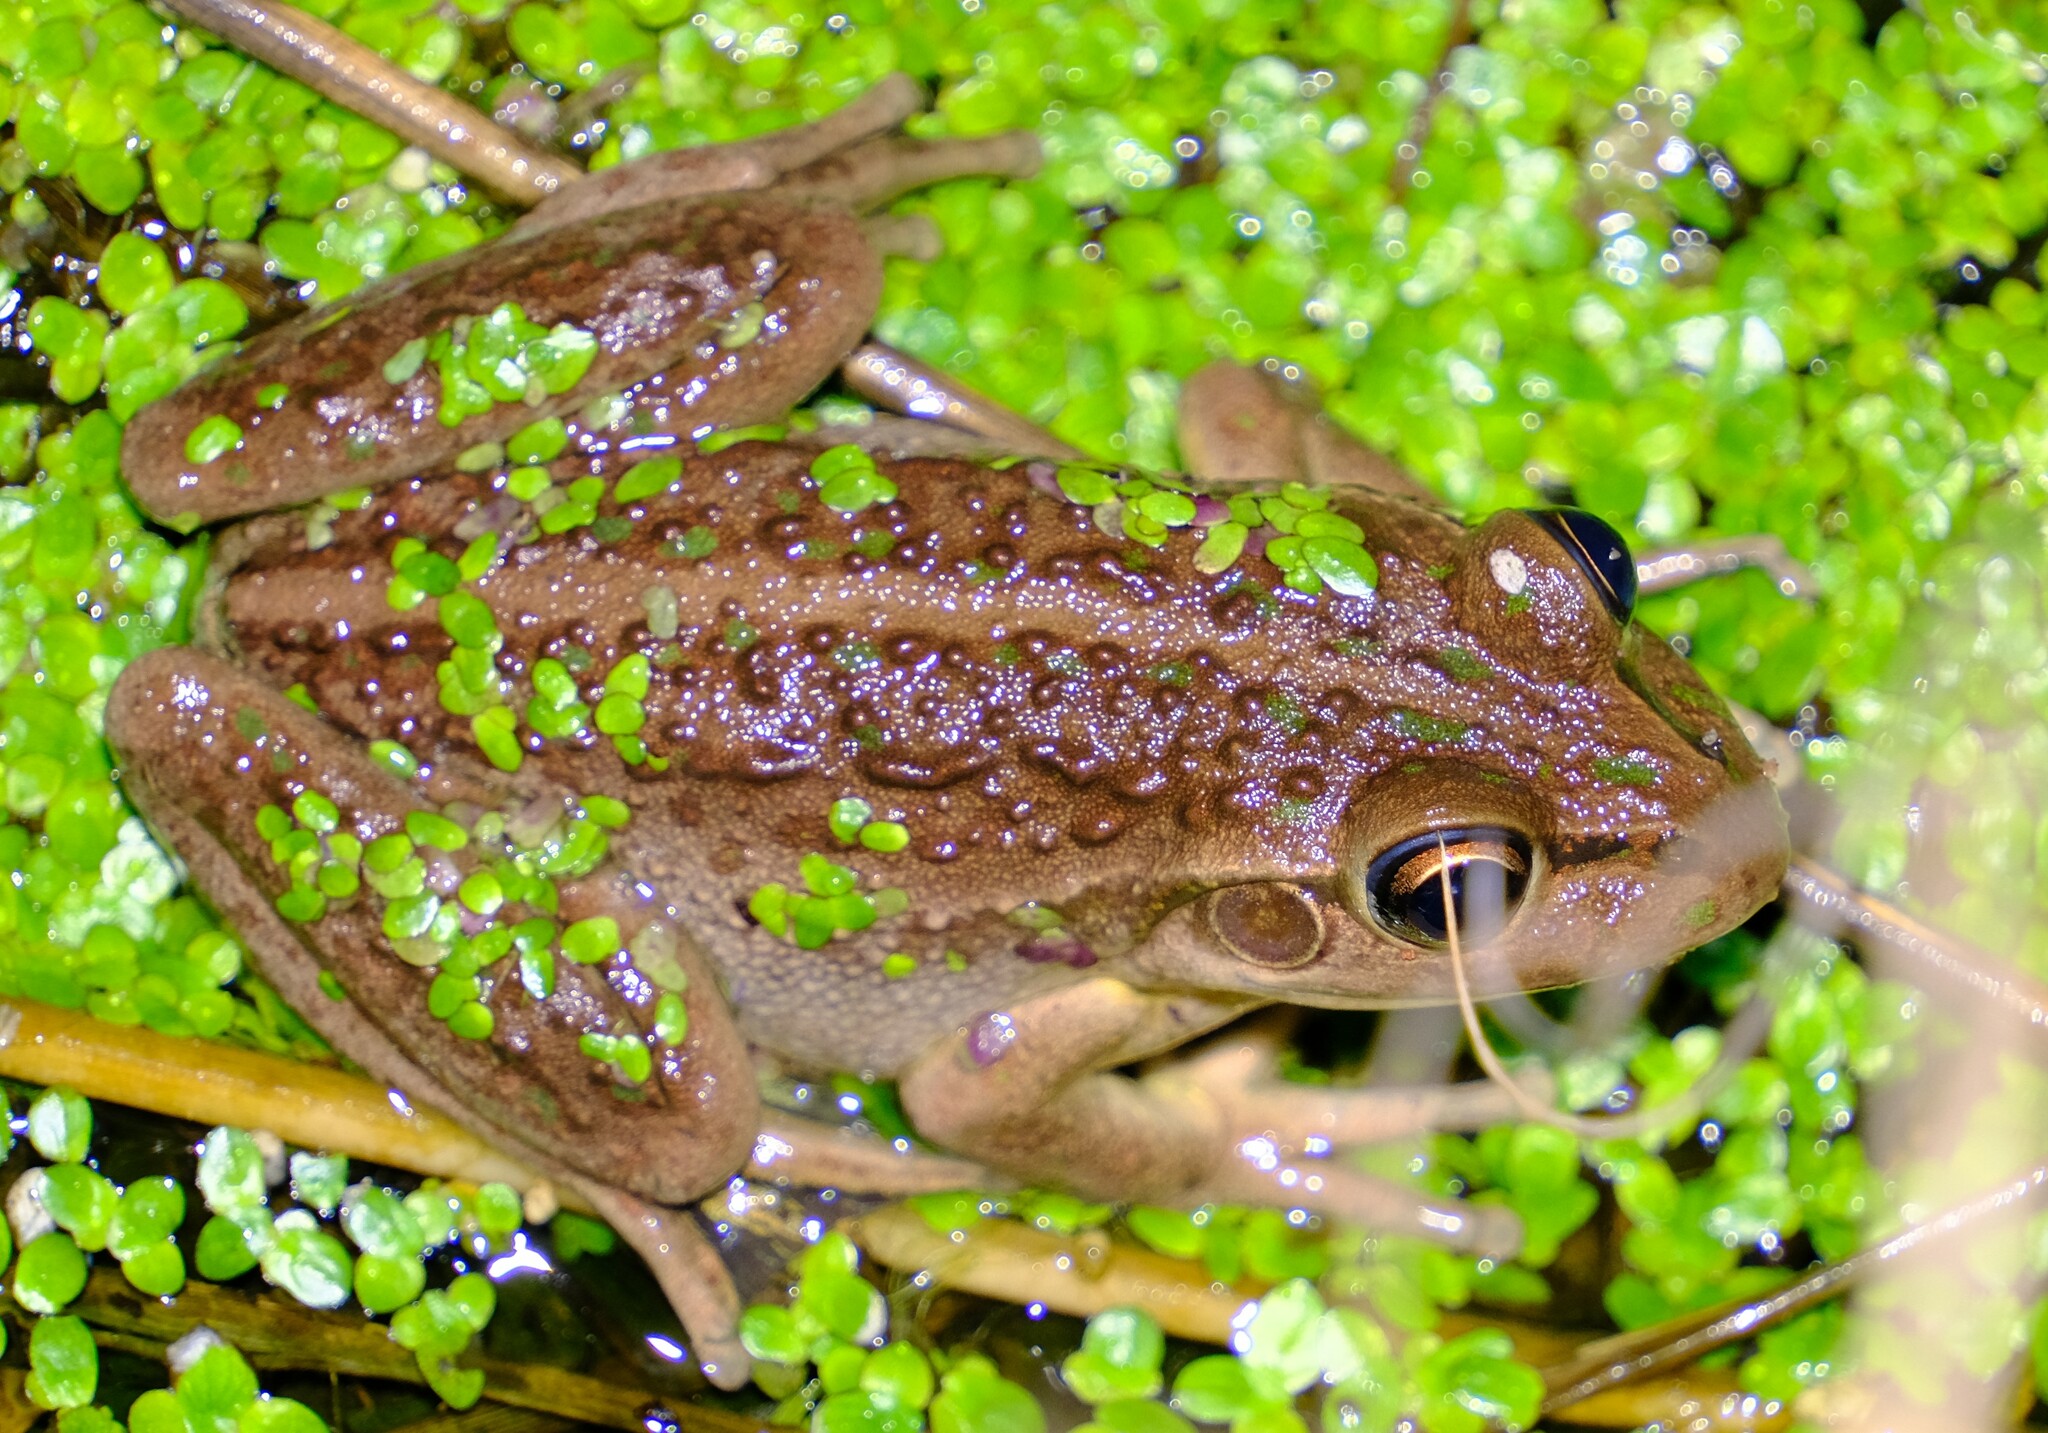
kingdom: Animalia
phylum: Chordata
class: Amphibia
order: Anura
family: Pelodryadidae
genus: Ranoidea
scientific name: Ranoidea moorei
